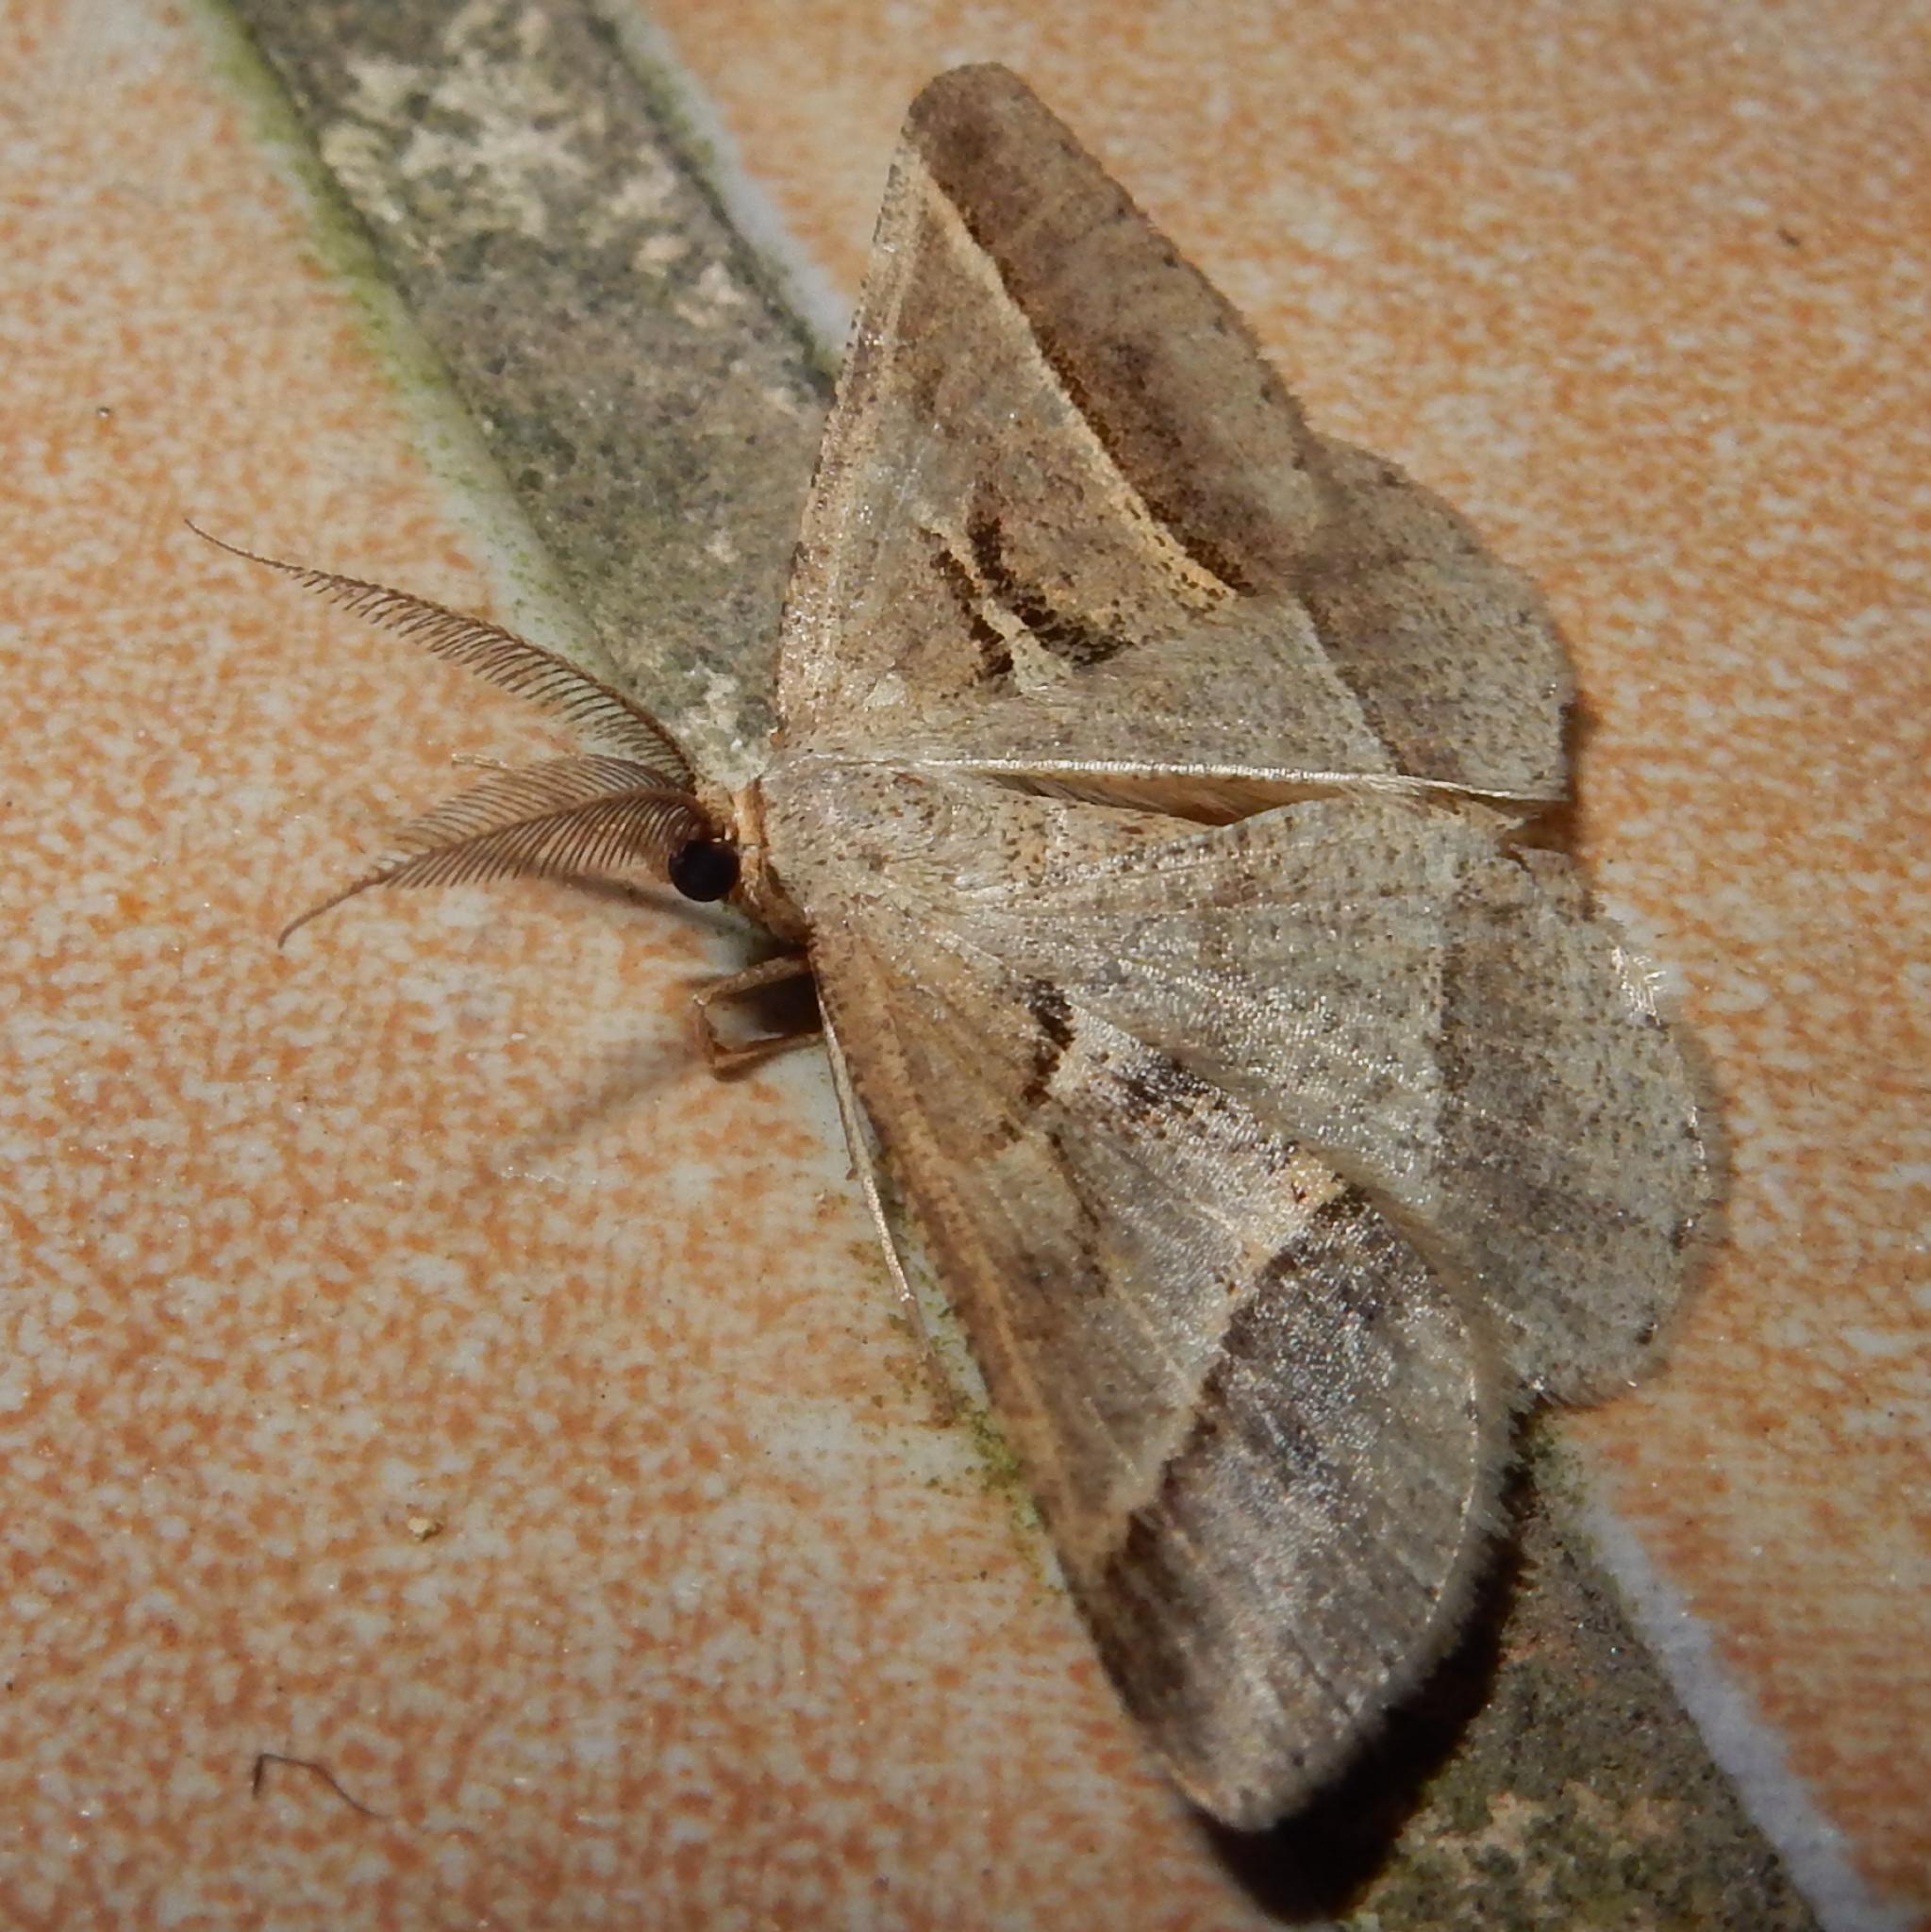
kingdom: Animalia
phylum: Arthropoda
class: Insecta
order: Lepidoptera
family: Geometridae
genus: Isturgia
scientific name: Isturgia deerraria
